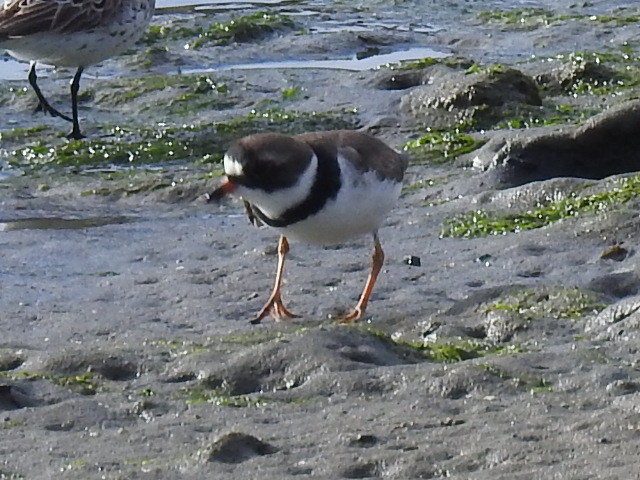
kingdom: Animalia
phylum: Chordata
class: Aves
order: Charadriiformes
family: Charadriidae
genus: Charadrius
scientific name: Charadrius semipalmatus
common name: Semipalmated plover
